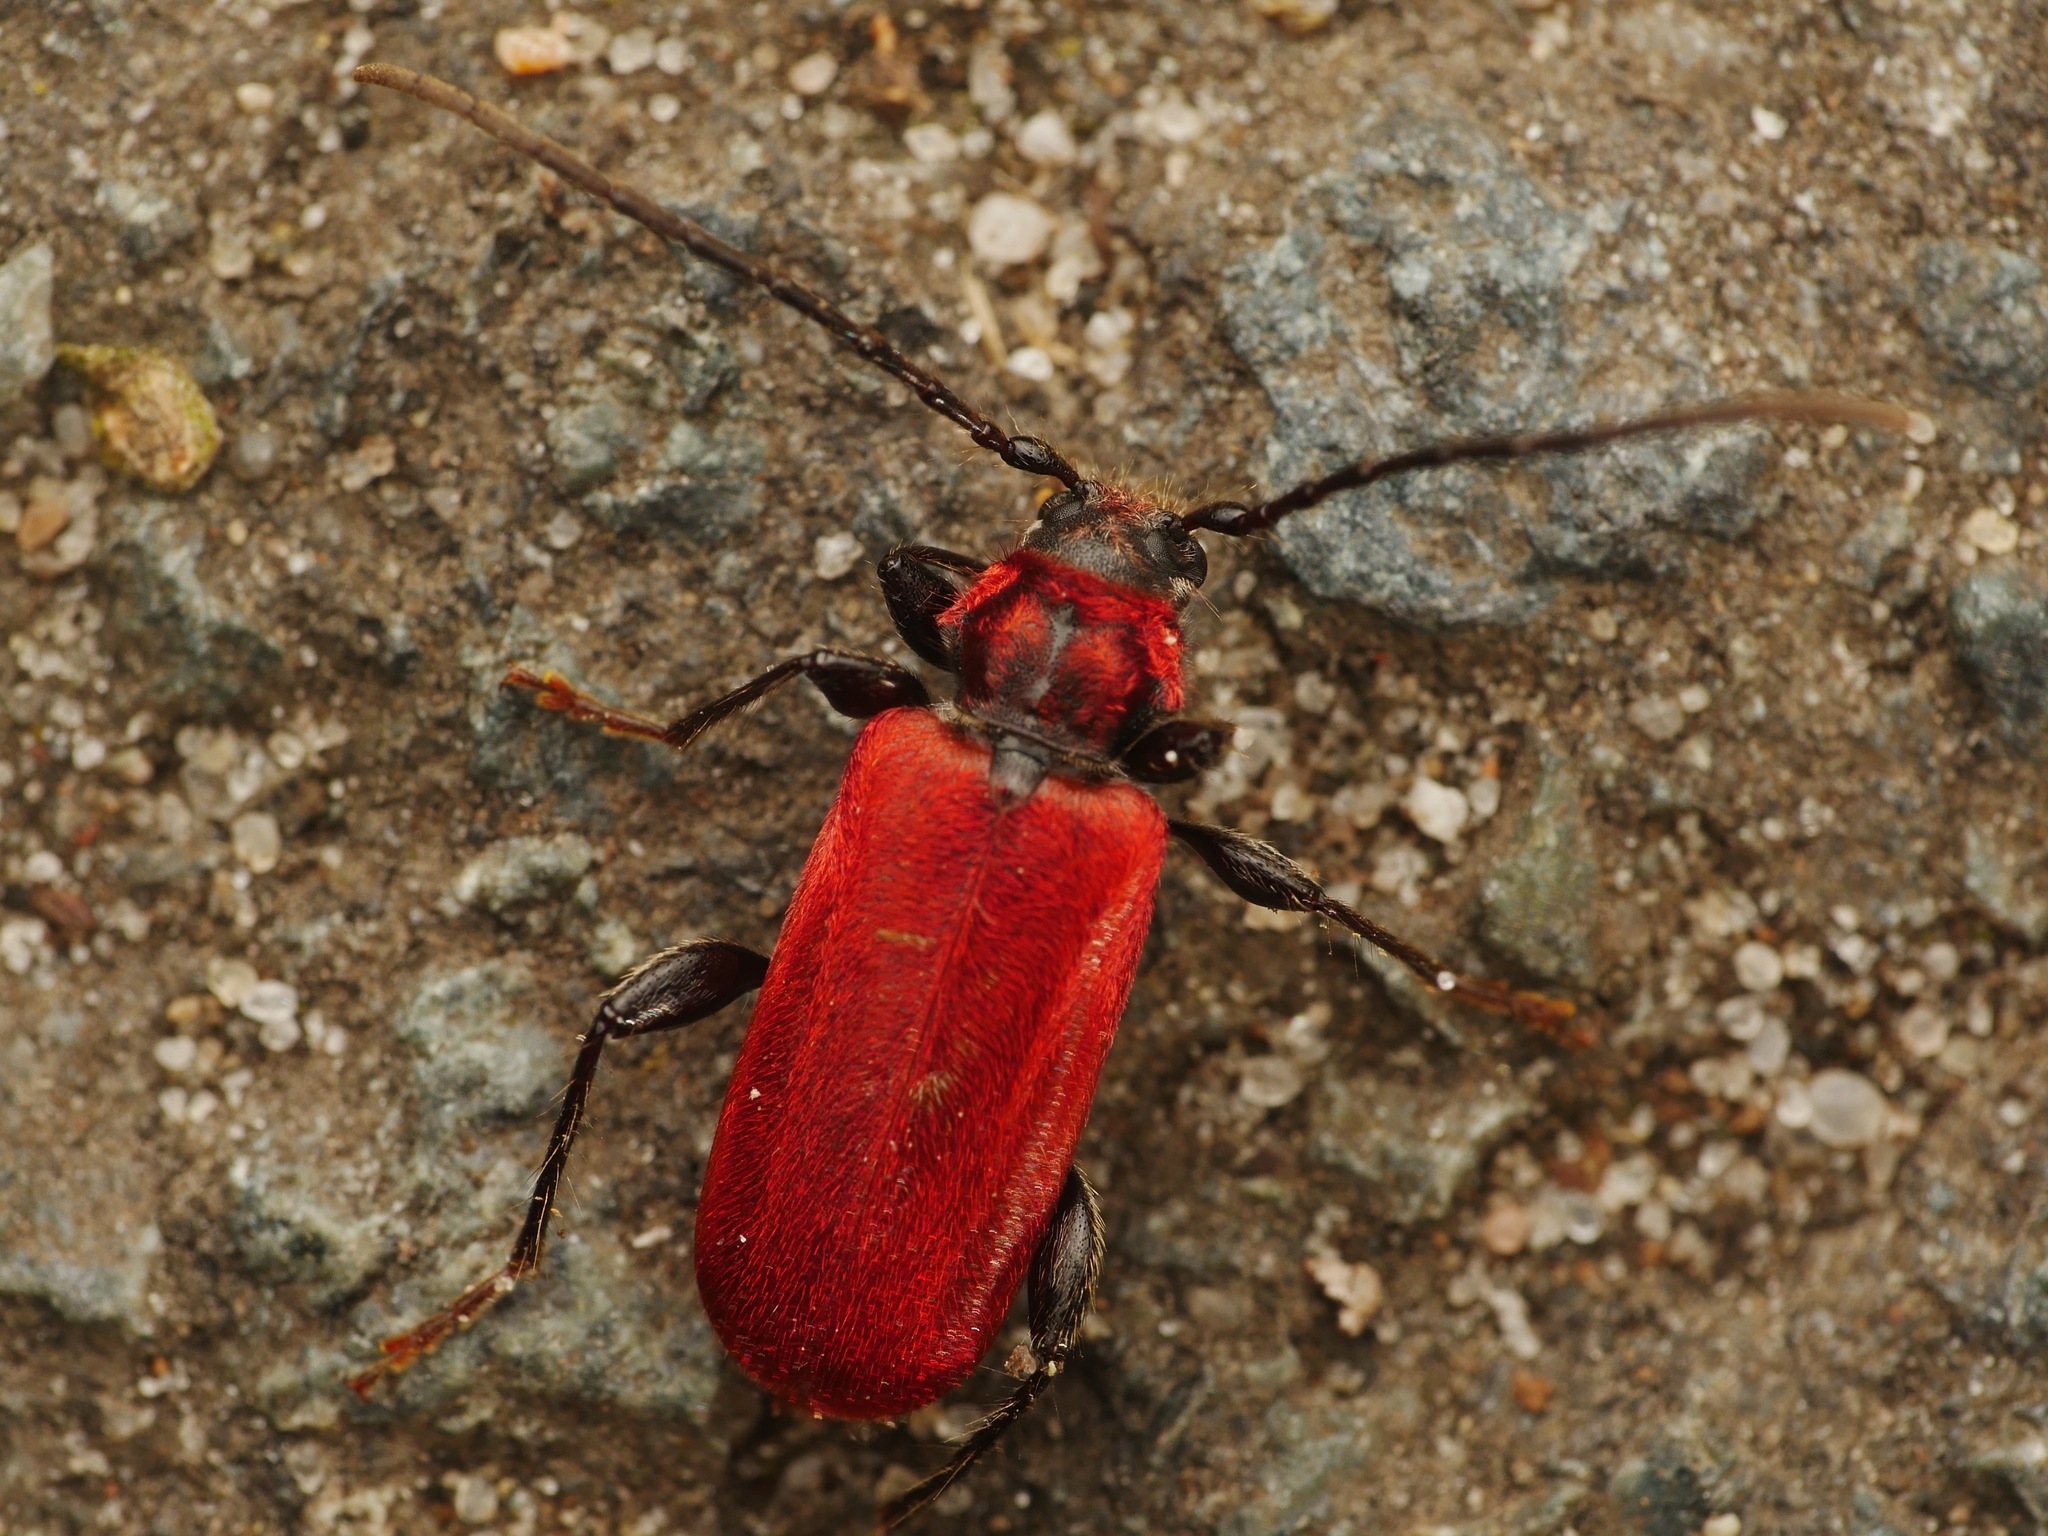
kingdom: Animalia
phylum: Arthropoda
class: Insecta
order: Coleoptera
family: Cerambycidae
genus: Pyrrhidium
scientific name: Pyrrhidium sanguineum
